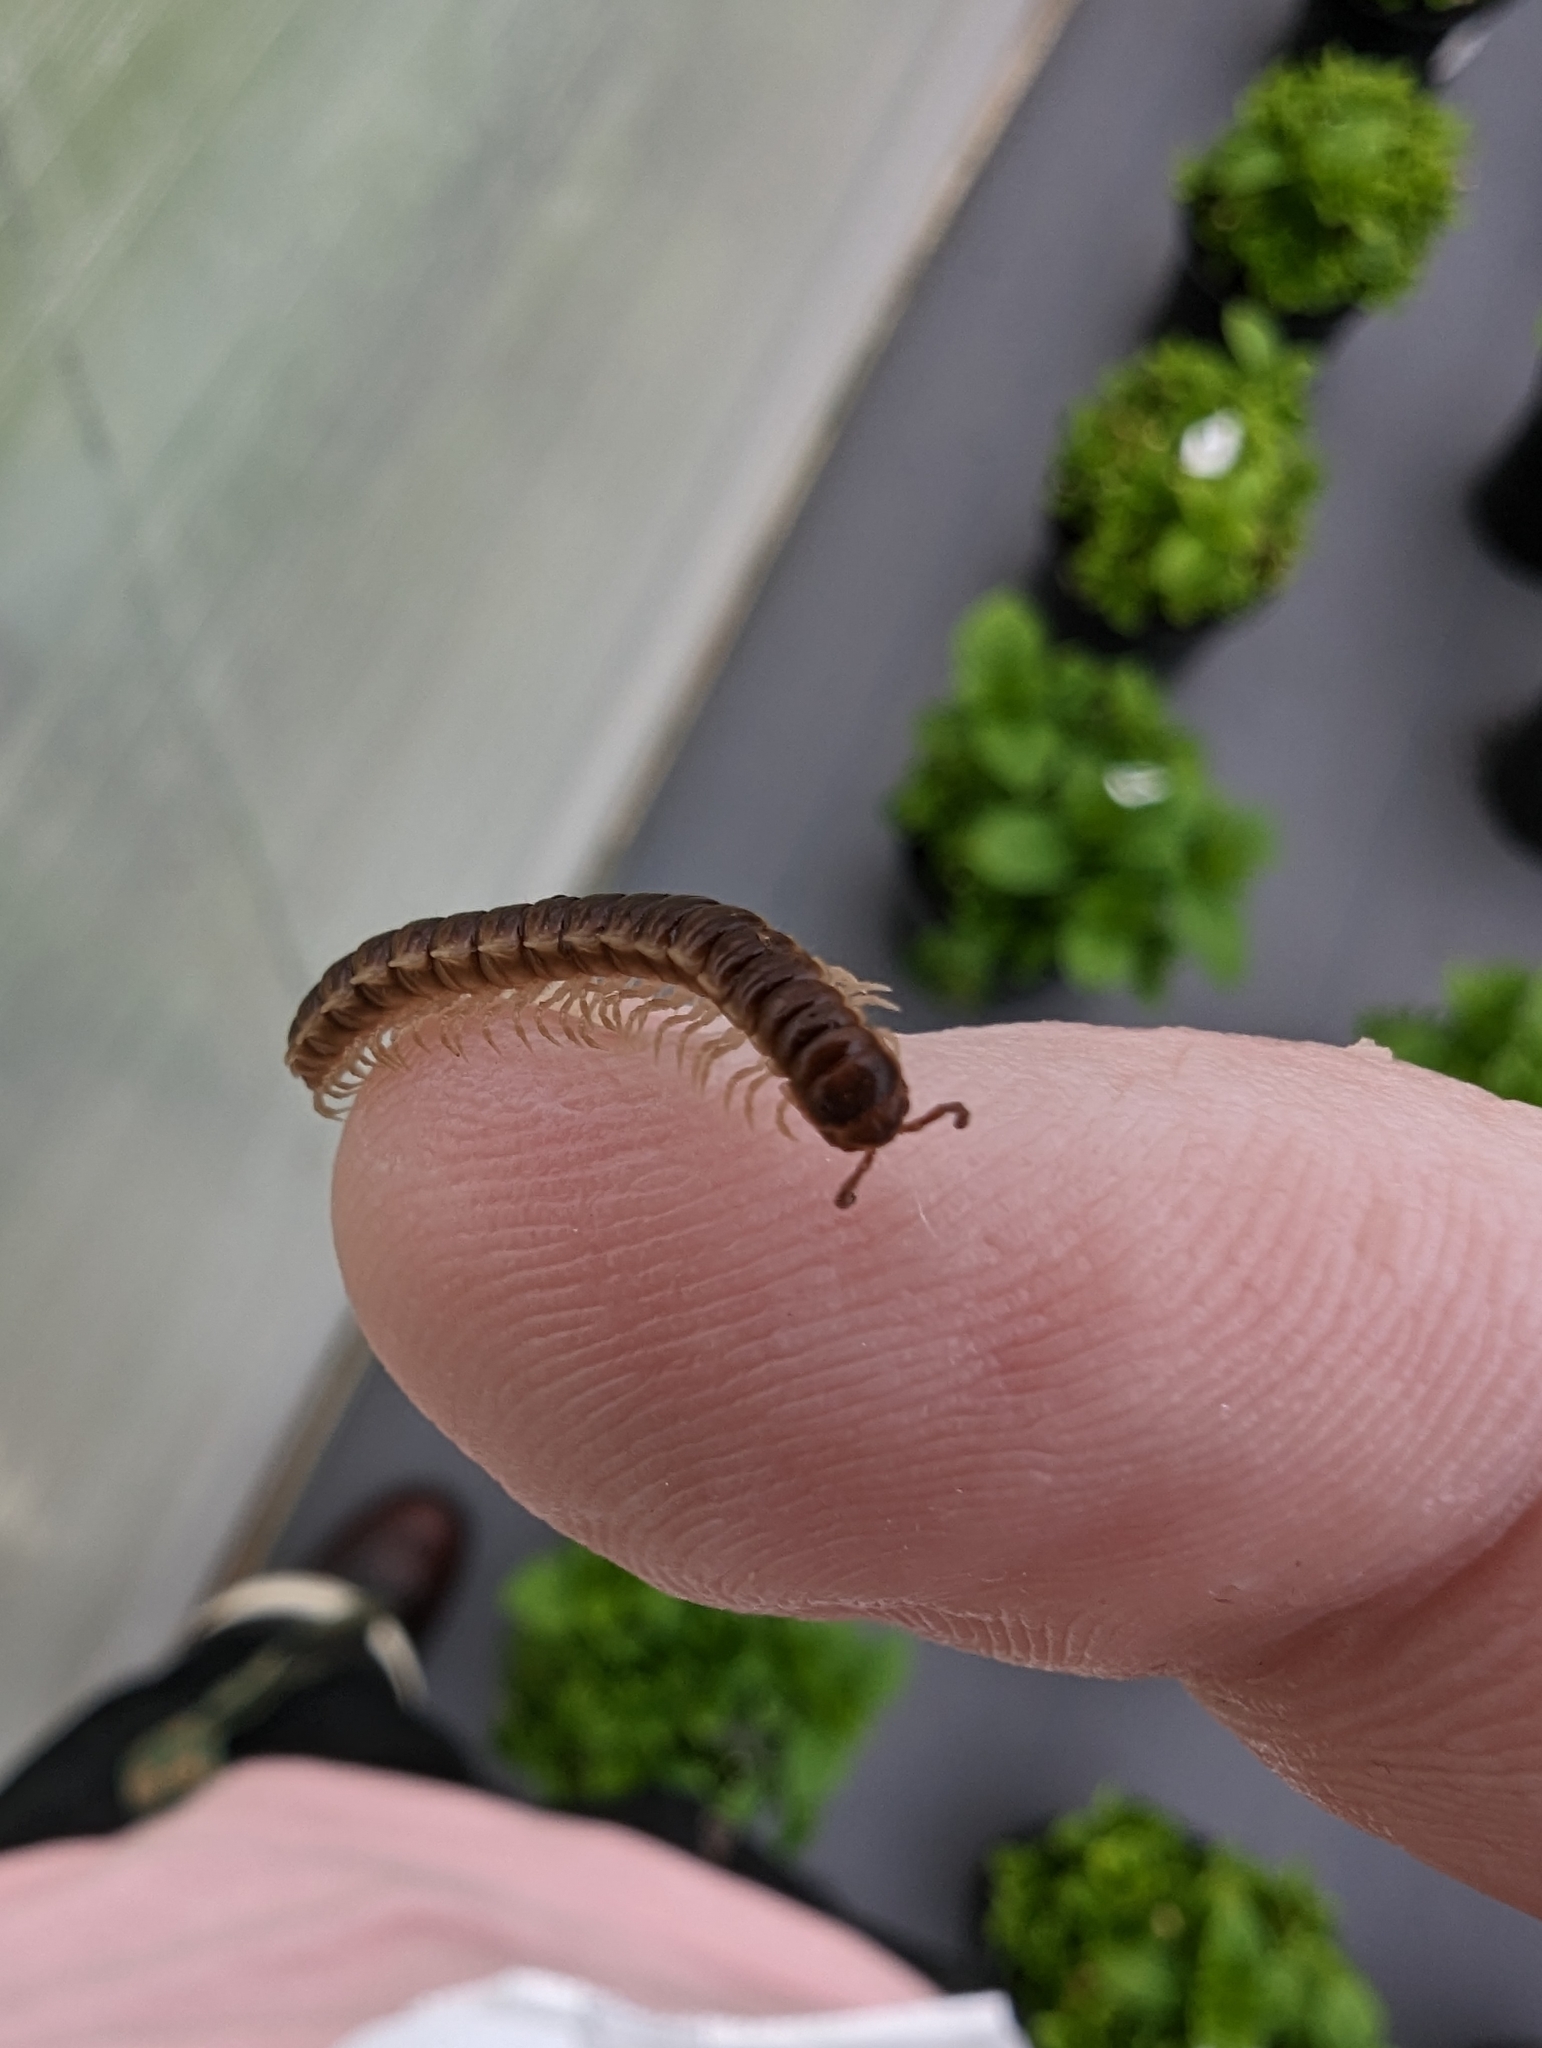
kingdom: Animalia
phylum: Arthropoda
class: Diplopoda
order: Polydesmida
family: Paradoxosomatidae
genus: Oxidus
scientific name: Oxidus gracilis
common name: Greenhouse millipede
